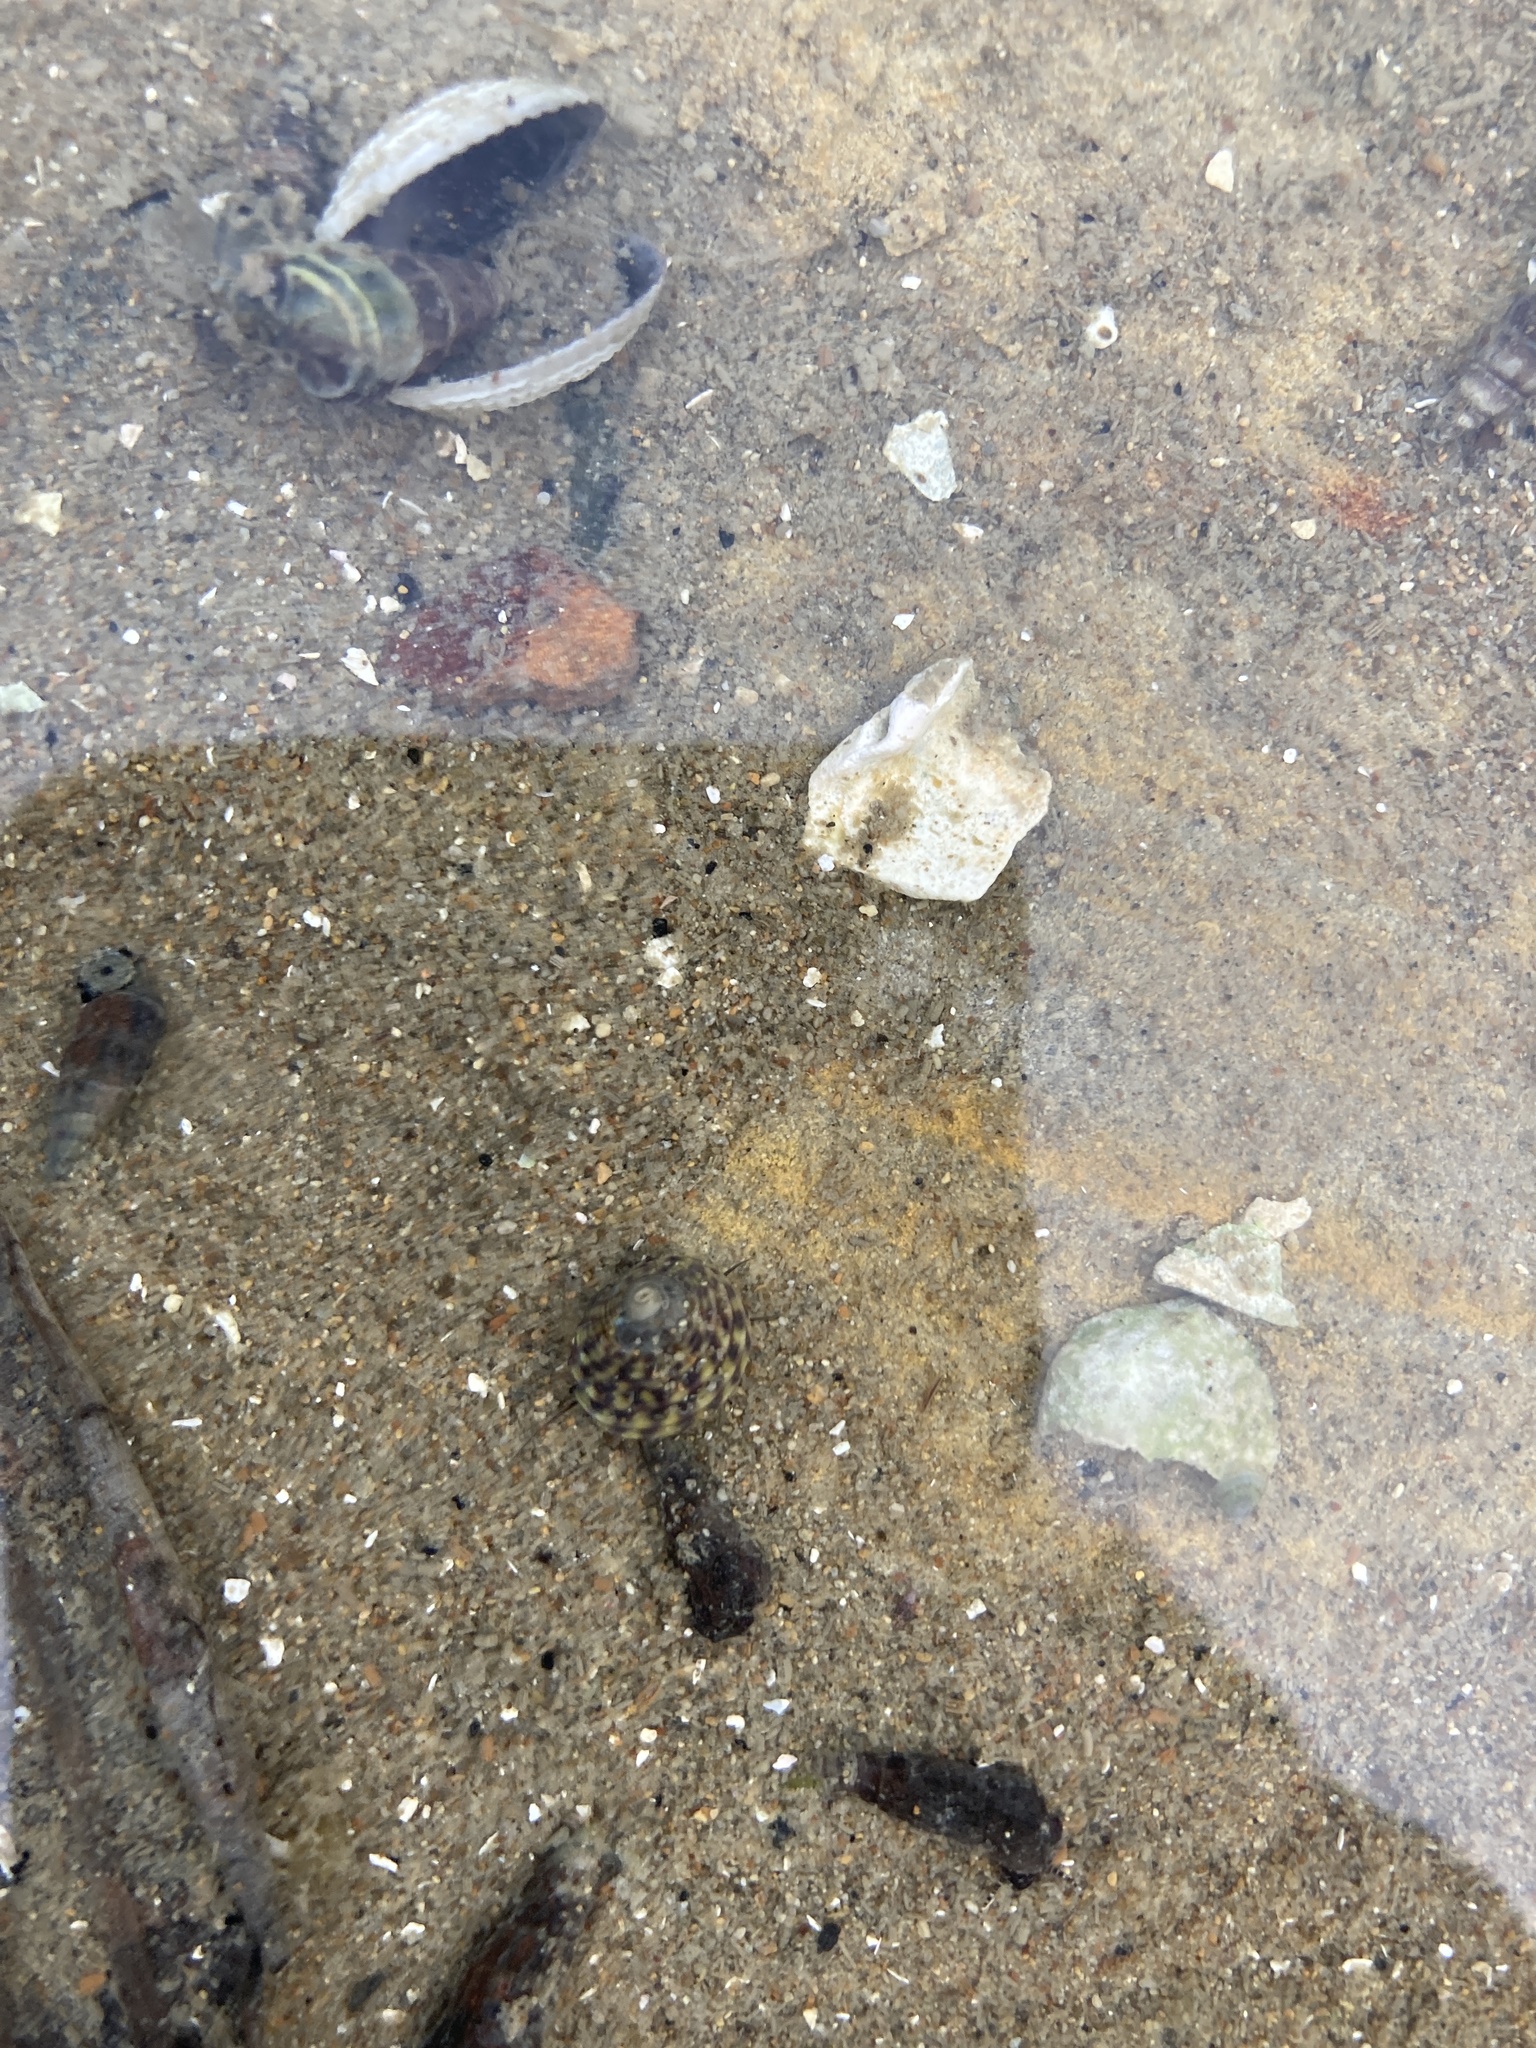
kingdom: Animalia
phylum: Mollusca
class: Gastropoda
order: Trochida
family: Trochidae
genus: Diloma
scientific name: Diloma subrostratum
